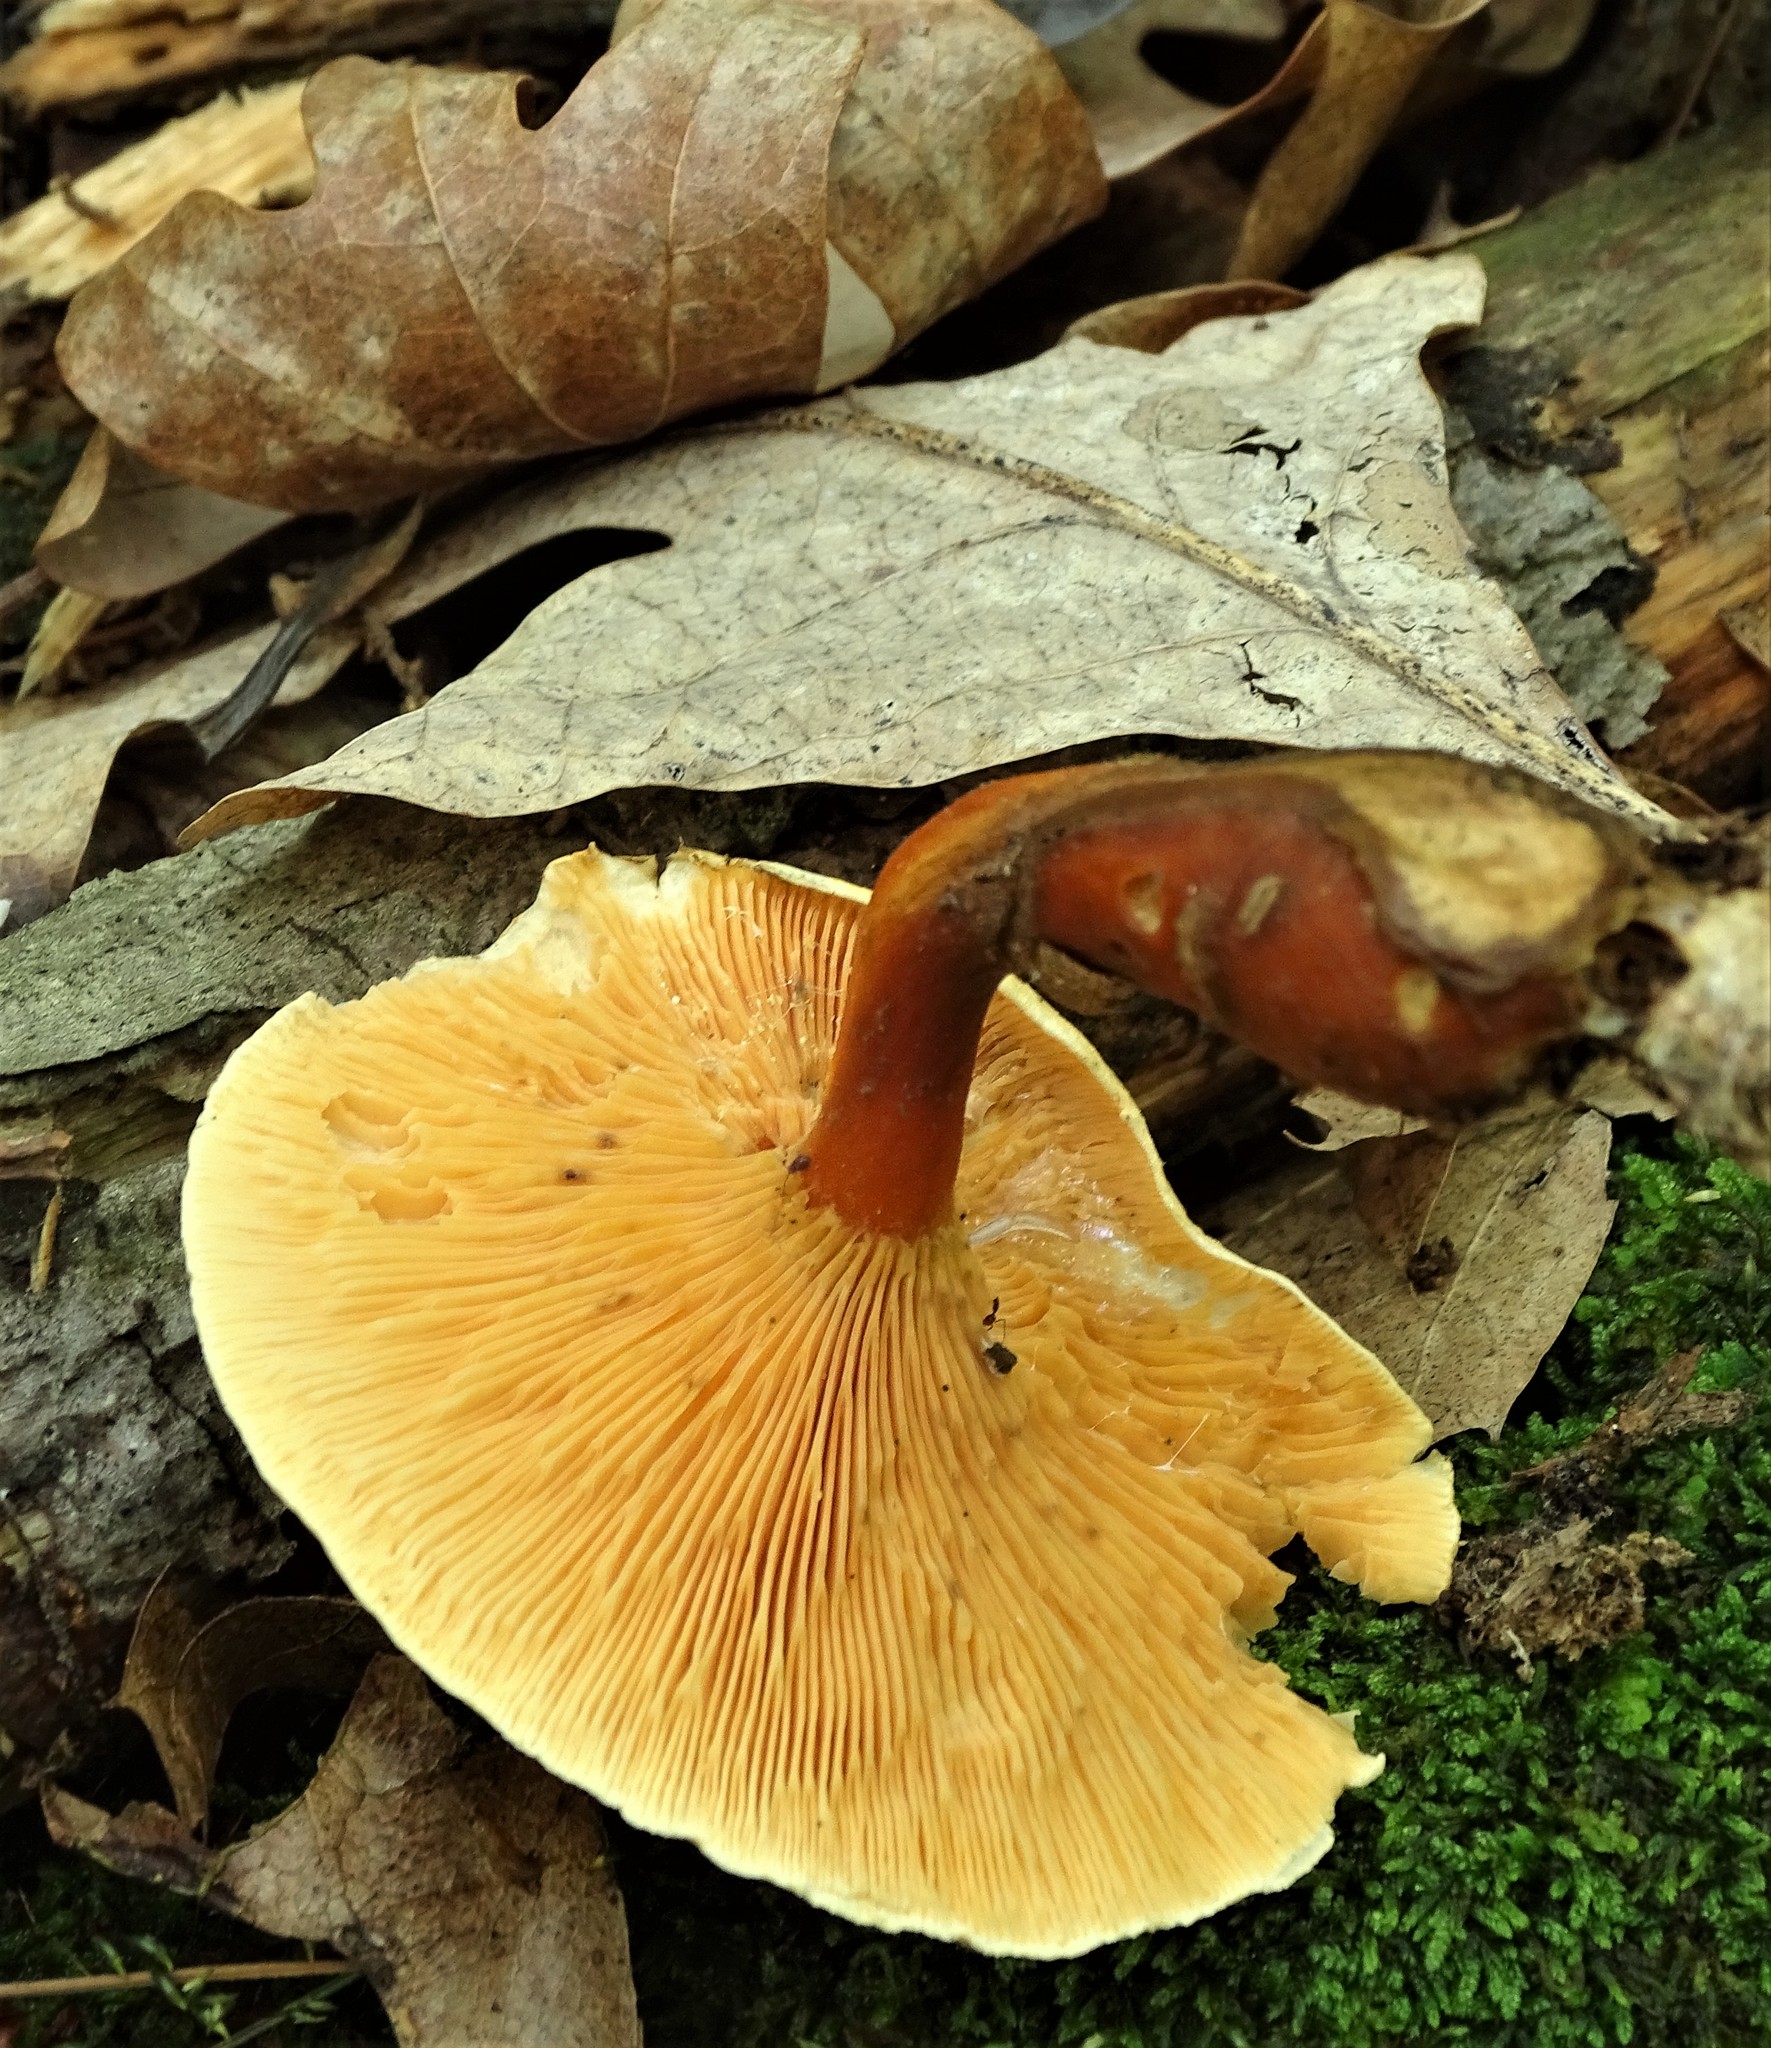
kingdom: Fungi
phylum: Basidiomycota
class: Agaricomycetes
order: Boletales
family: Hygrophoropsidaceae
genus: Hygrophoropsis
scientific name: Hygrophoropsis aurantiaca
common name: False chanterelle
